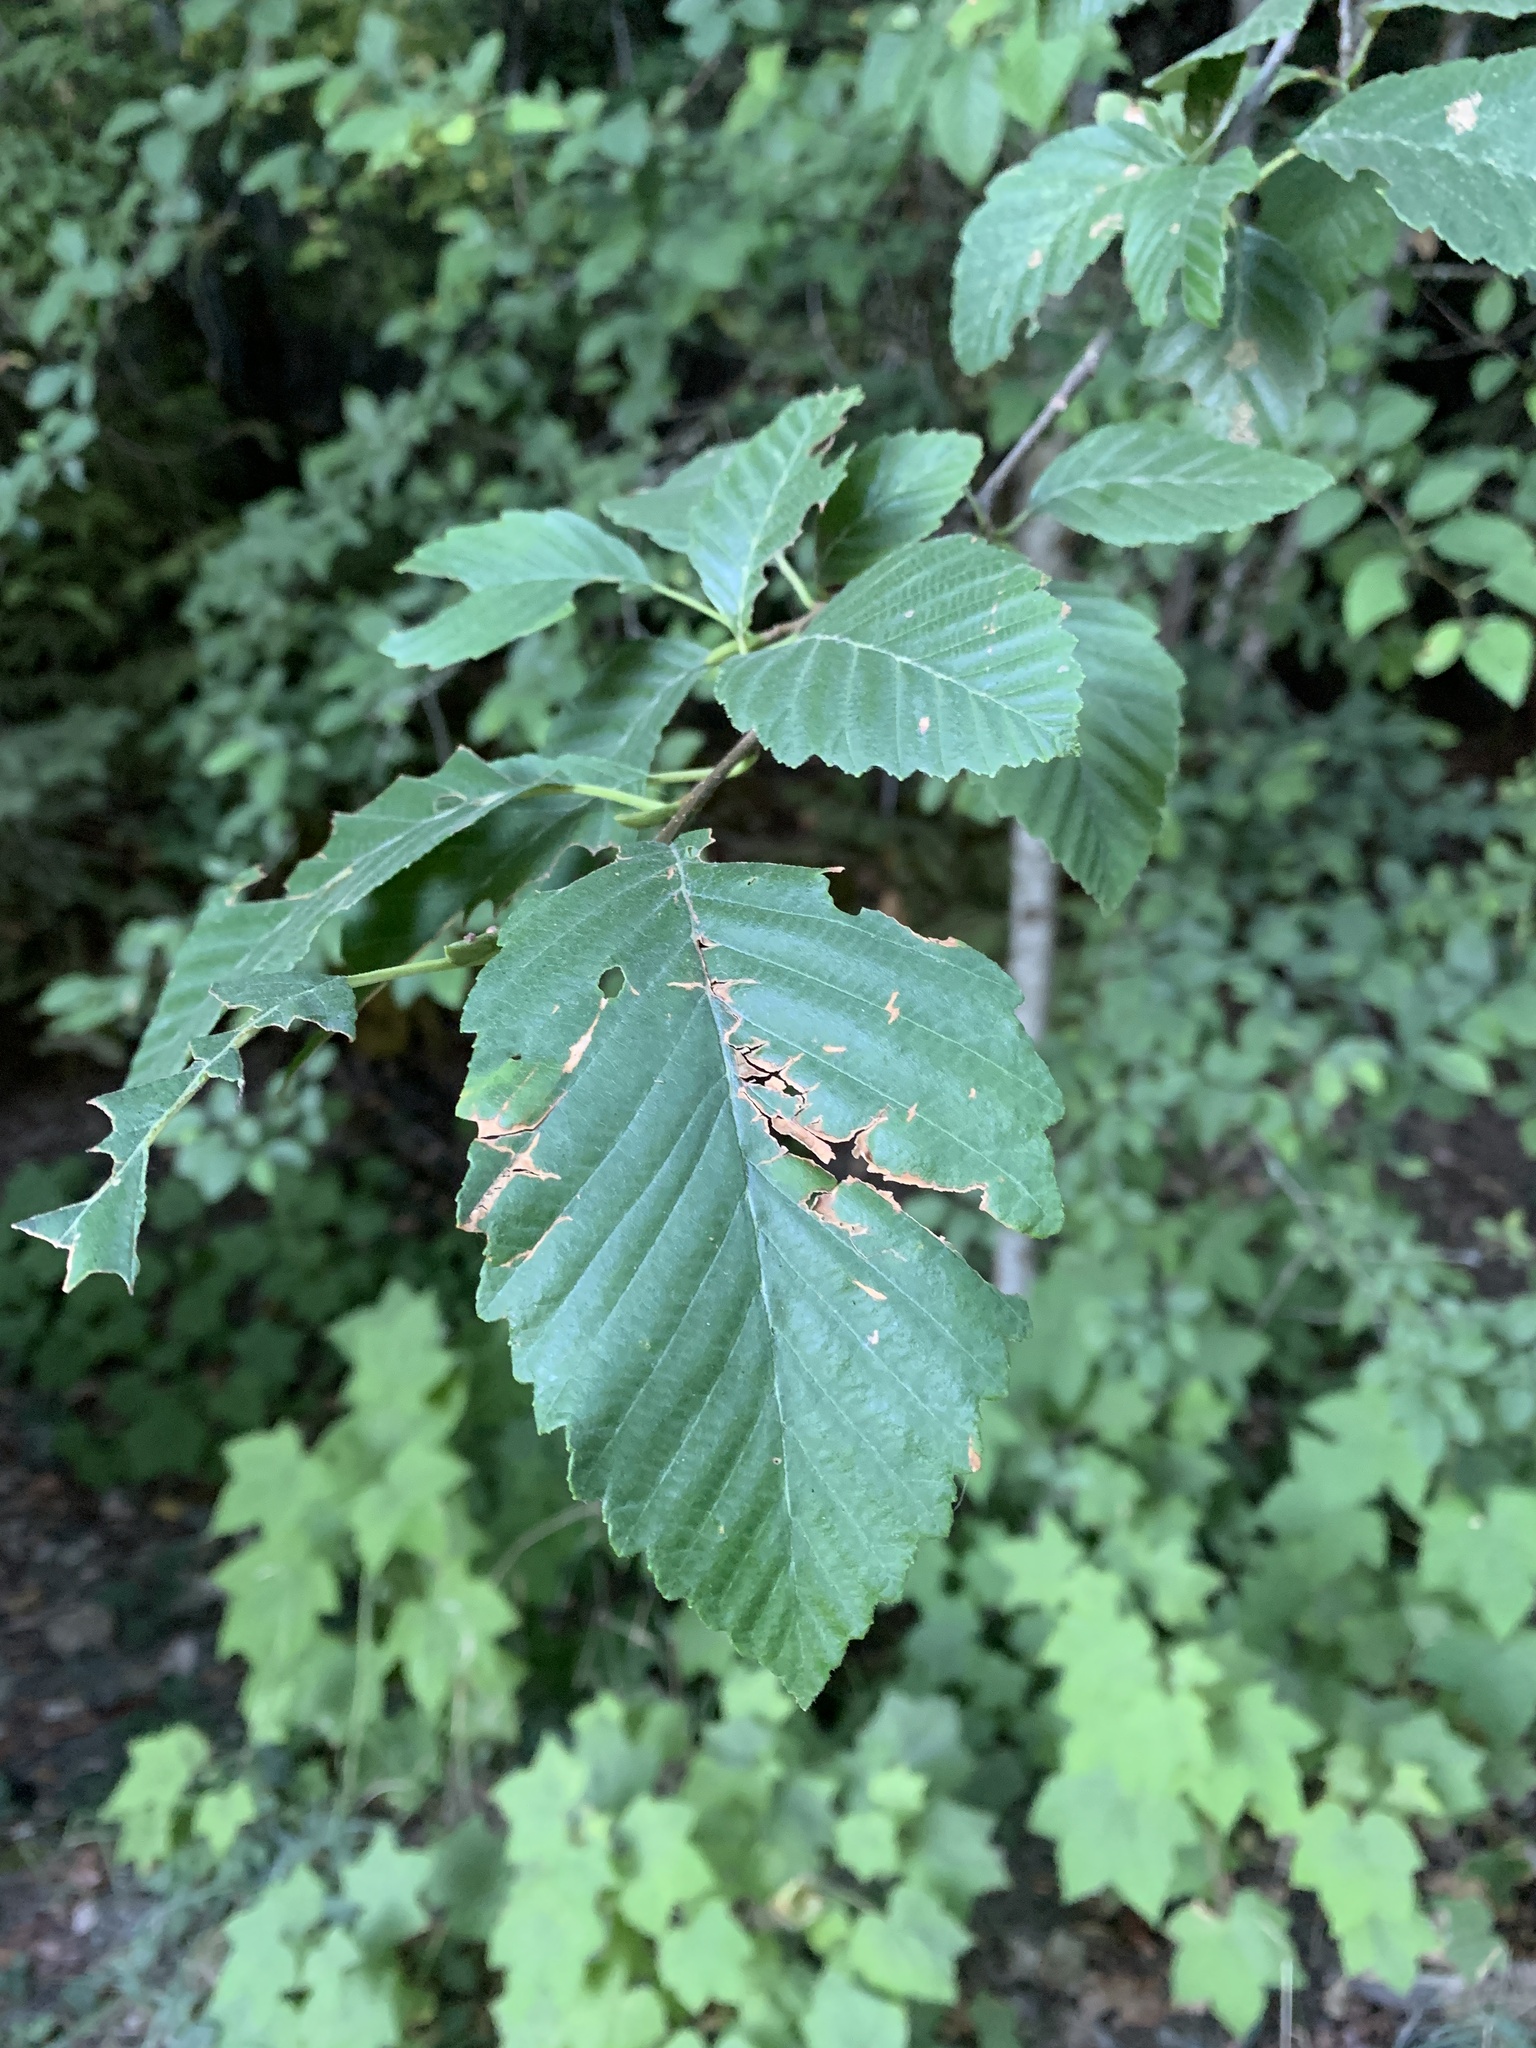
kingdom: Plantae
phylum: Tracheophyta
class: Magnoliopsida
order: Fagales
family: Betulaceae
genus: Alnus
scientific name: Alnus rubra
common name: Red alder
